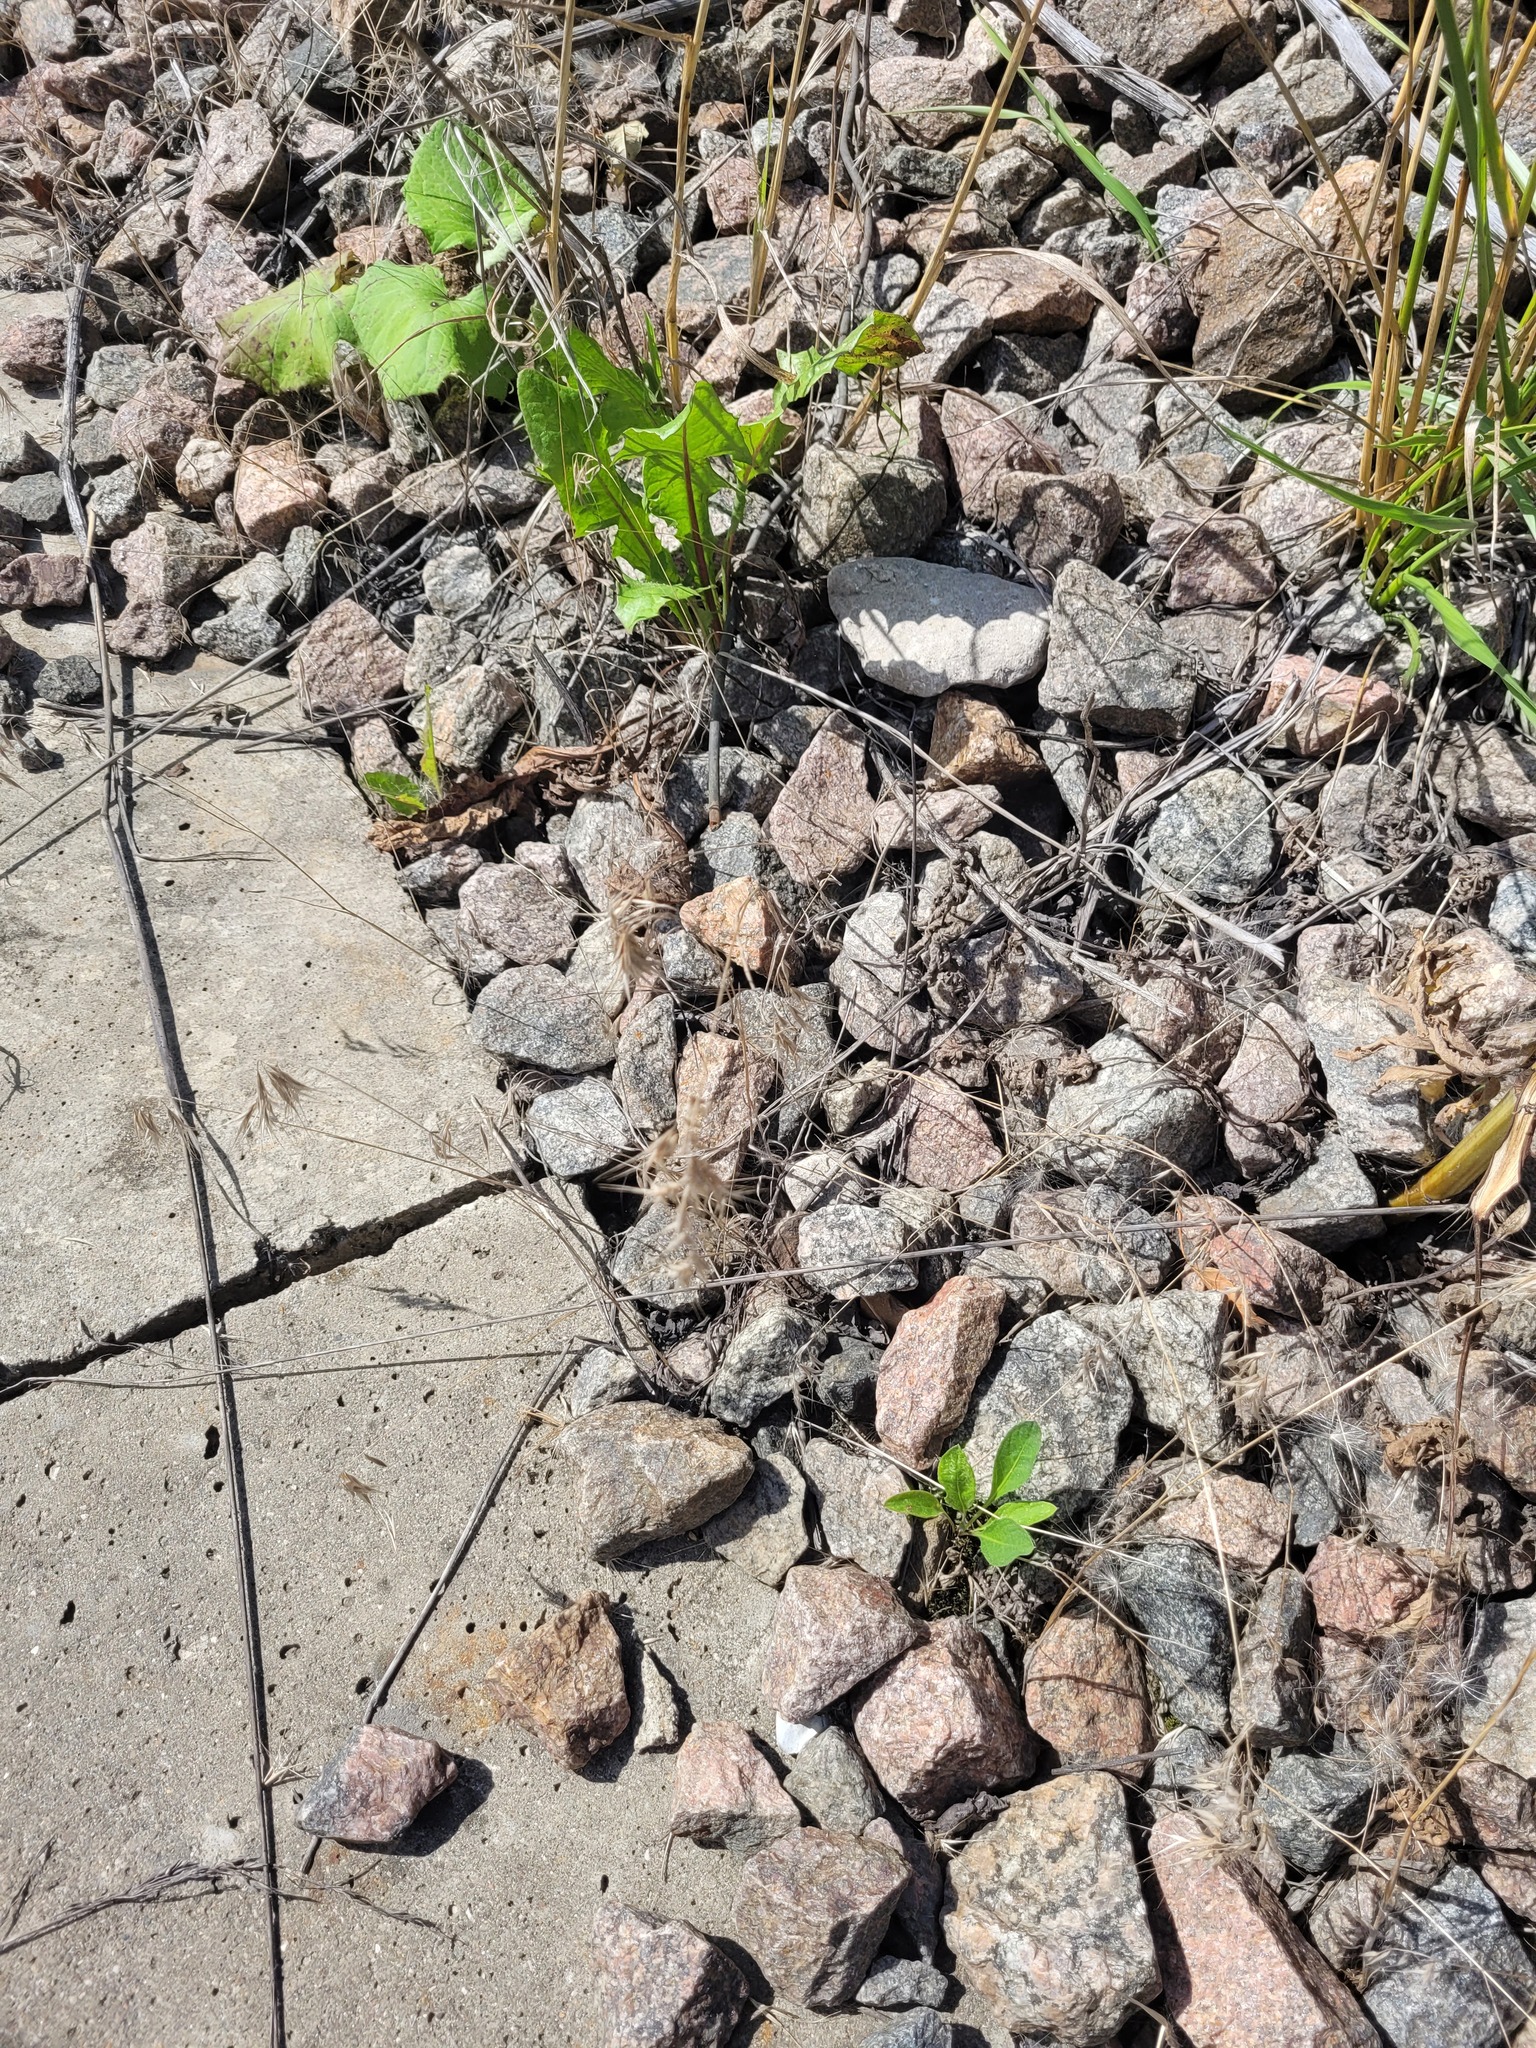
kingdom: Plantae
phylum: Tracheophyta
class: Liliopsida
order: Poales
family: Poaceae
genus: Bromus
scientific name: Bromus tectorum
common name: Cheatgrass
